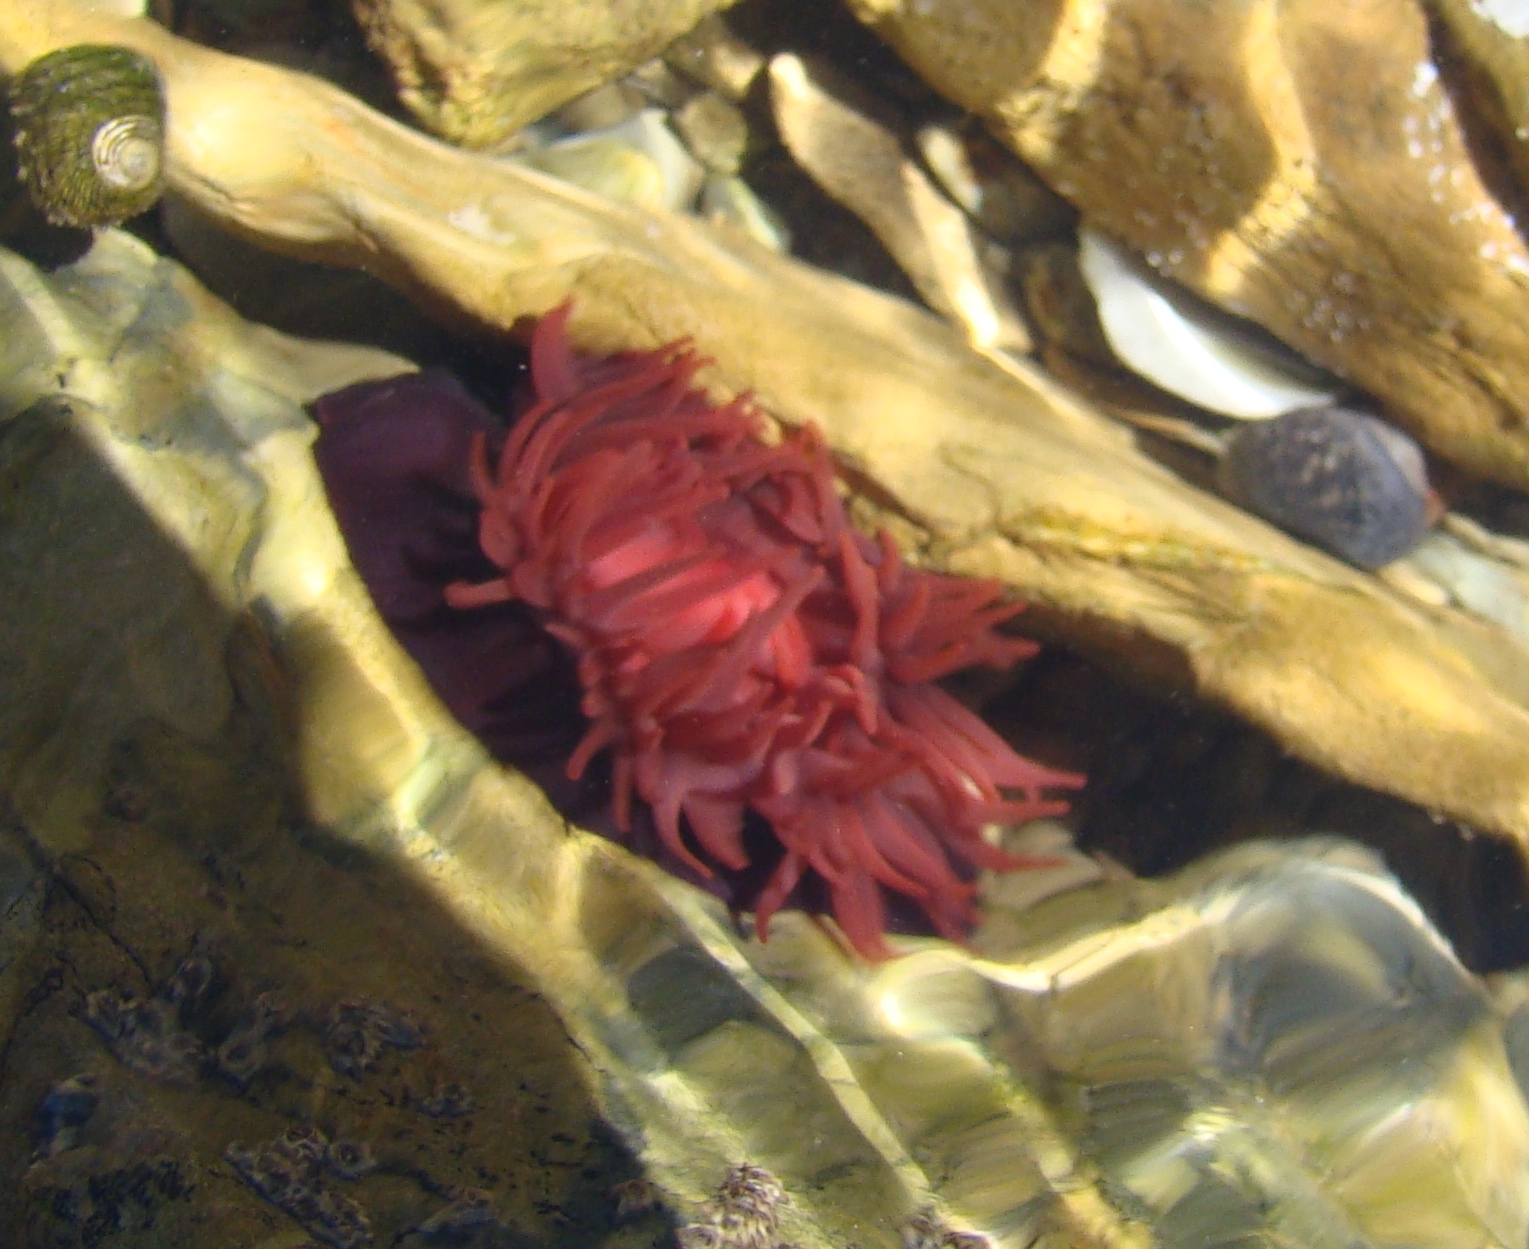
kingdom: Animalia
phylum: Cnidaria
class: Anthozoa
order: Actiniaria
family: Actiniidae
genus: Actinia
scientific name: Actinia tenebrosa
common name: Waratah anemone
